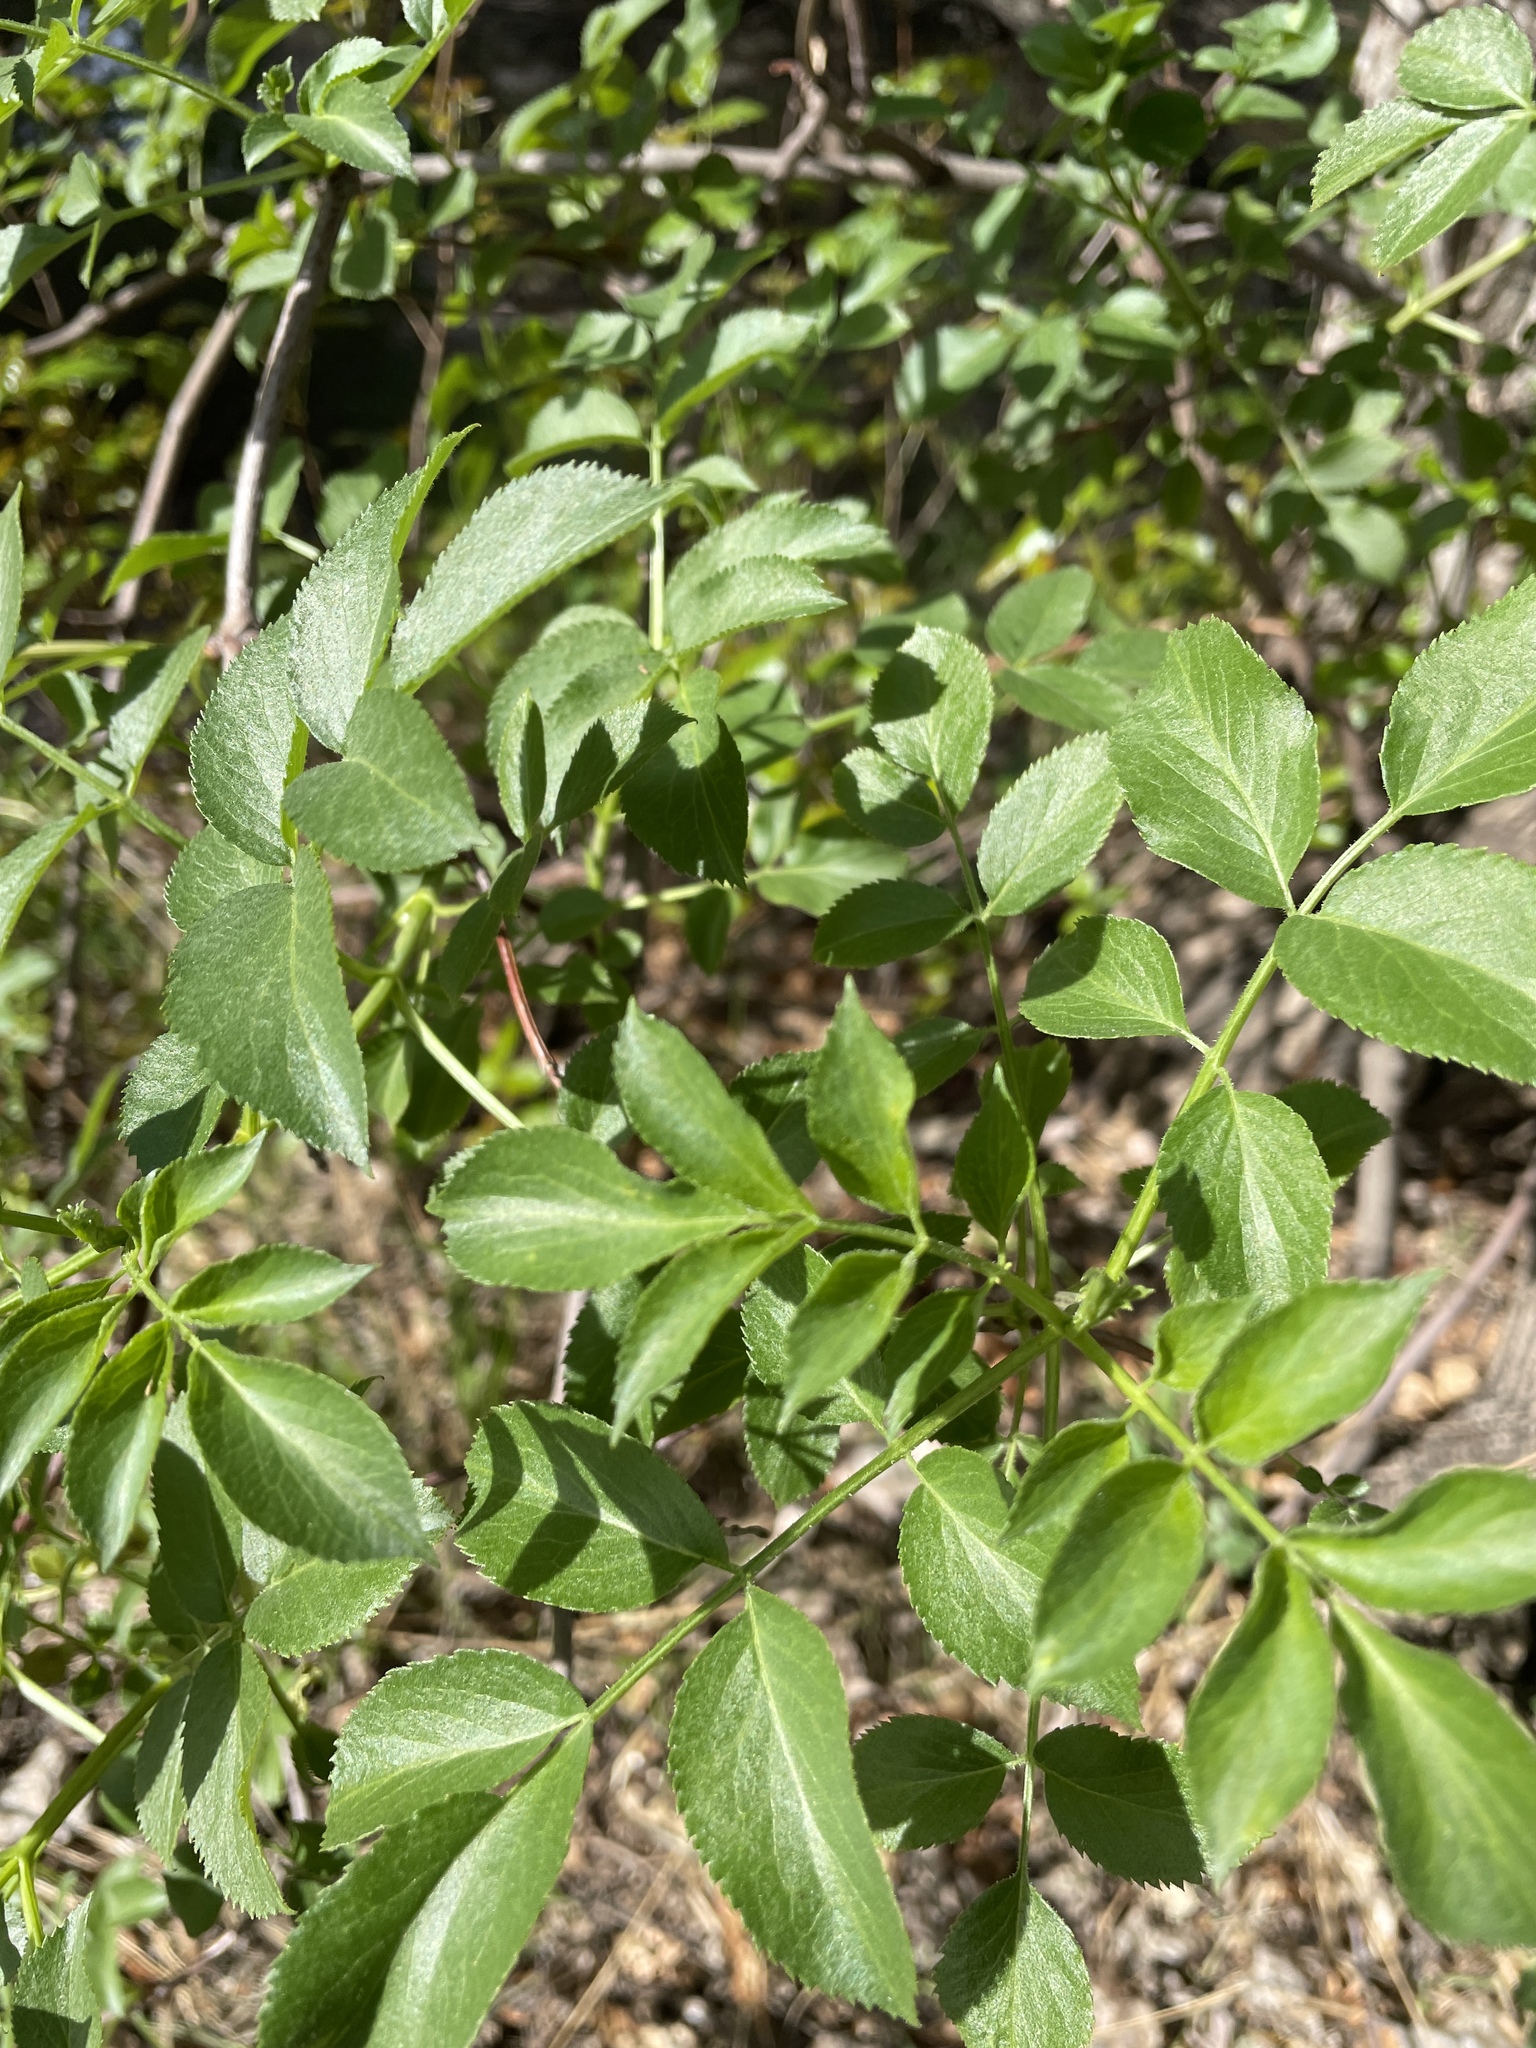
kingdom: Plantae
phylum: Tracheophyta
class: Magnoliopsida
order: Dipsacales
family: Viburnaceae
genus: Sambucus
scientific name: Sambucus cerulea
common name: Blue elder
